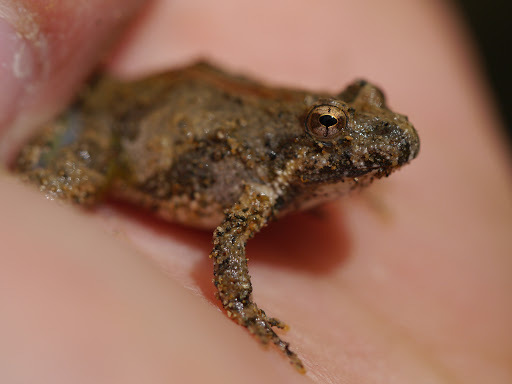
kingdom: Animalia
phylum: Chordata
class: Amphibia
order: Anura
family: Hylidae
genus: Acris
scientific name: Acris crepitans
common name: Northern cricket frog
